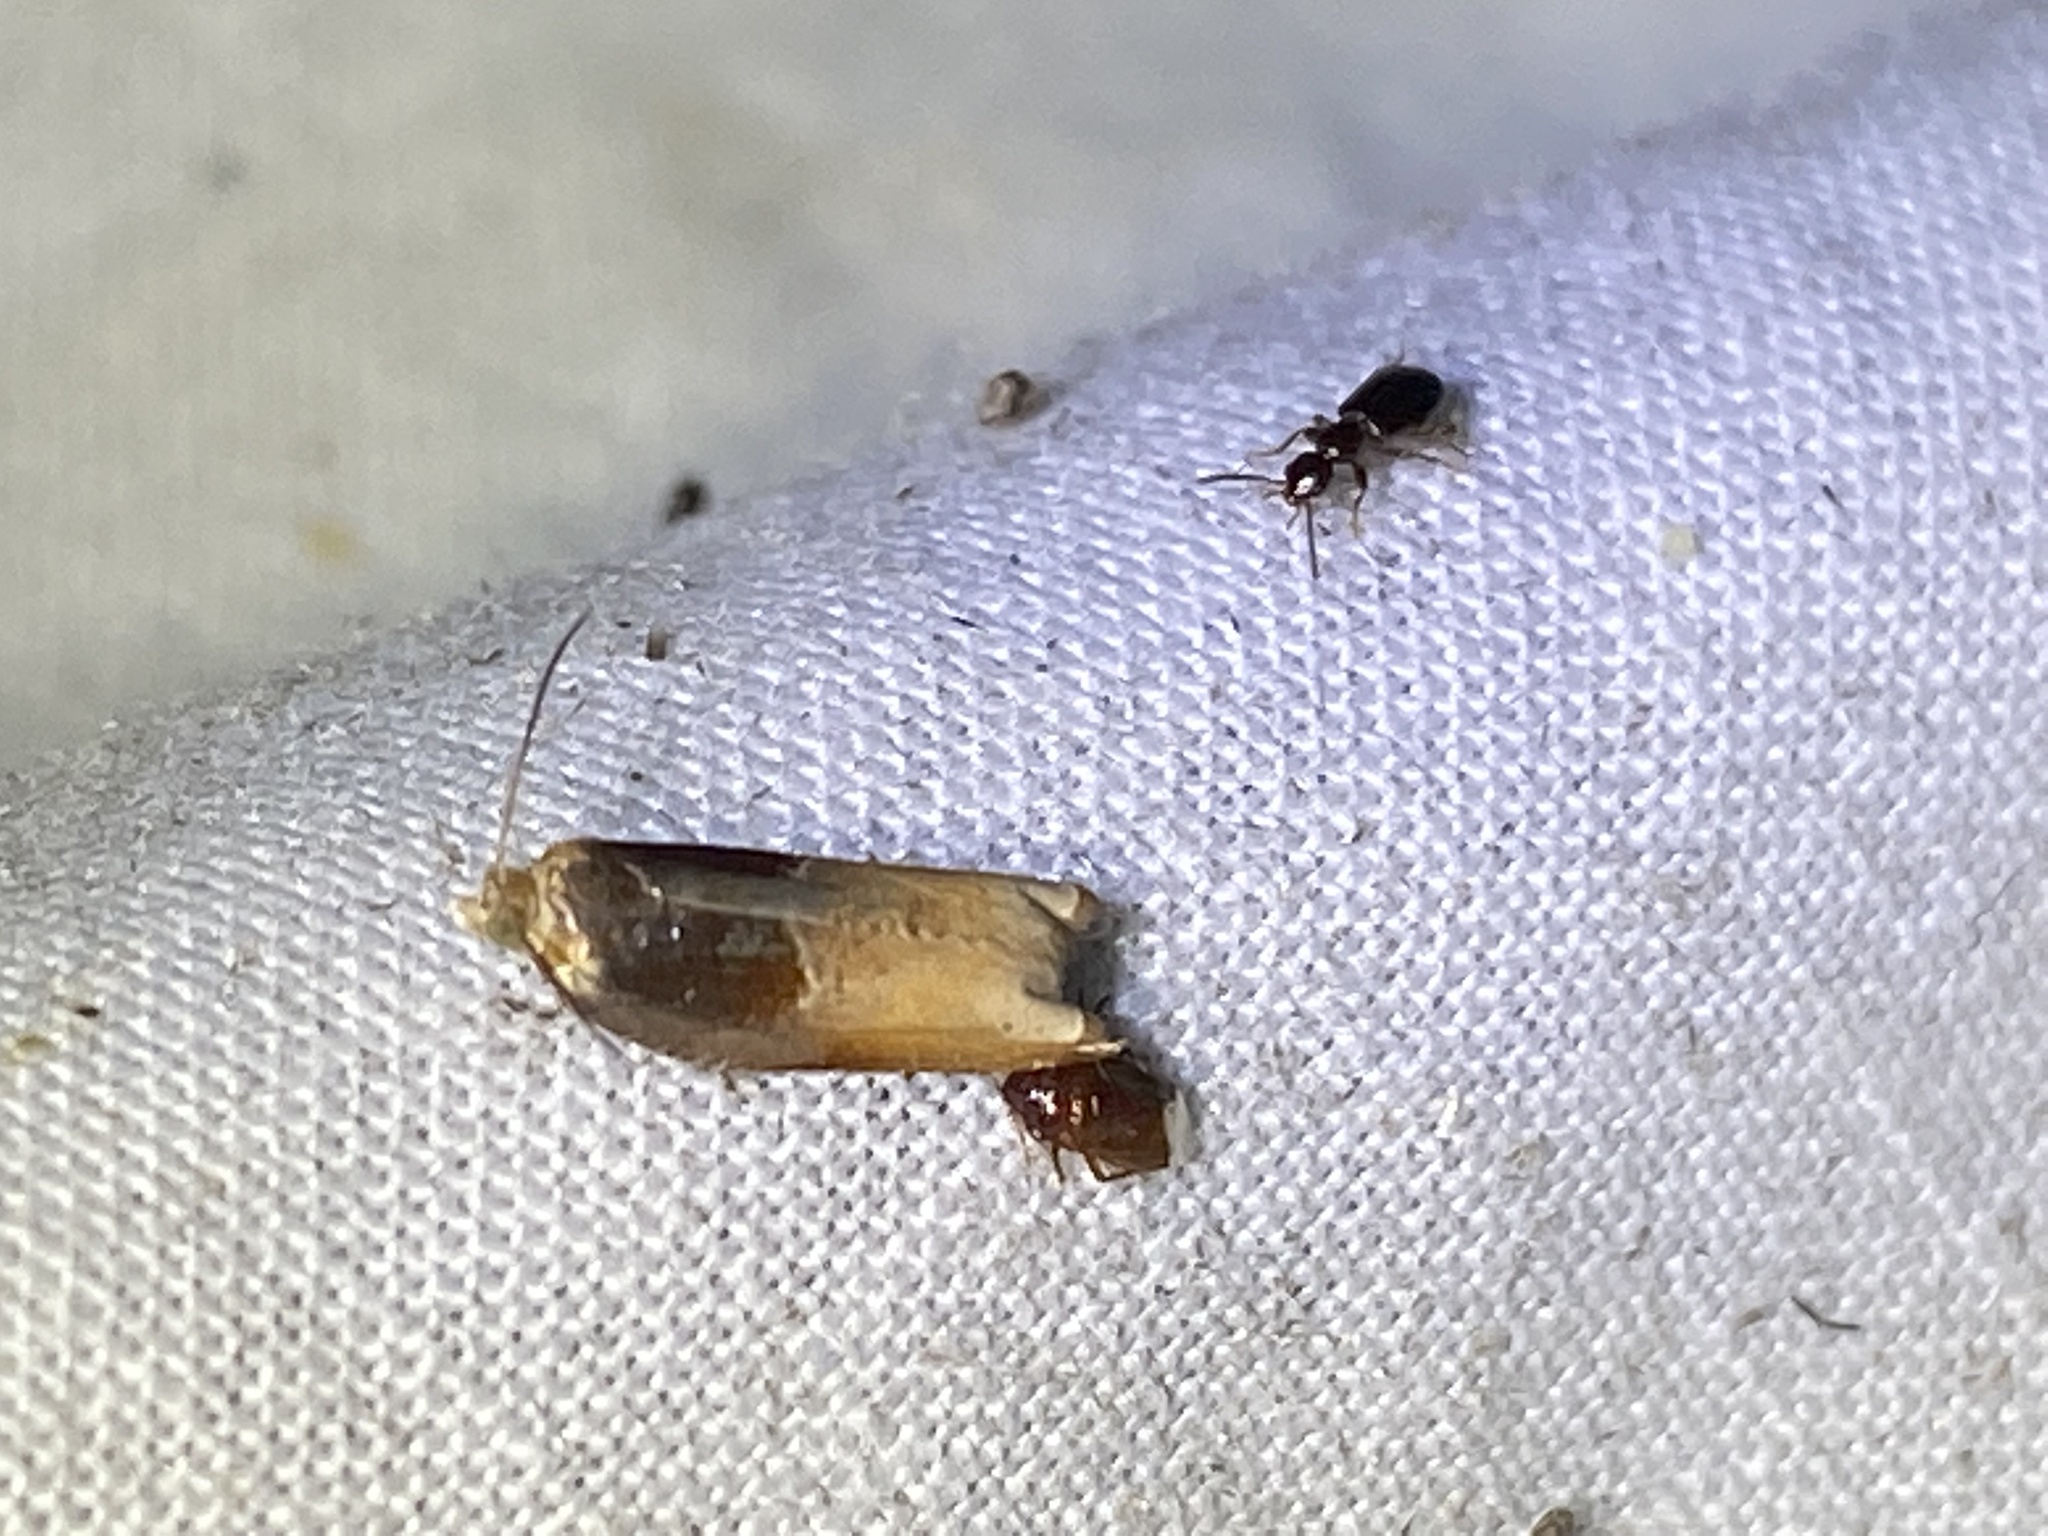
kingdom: Animalia
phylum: Arthropoda
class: Insecta
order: Lepidoptera
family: Tortricidae
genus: Ancylis
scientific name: Ancylis divisana
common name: Two-toned ancylis moth
